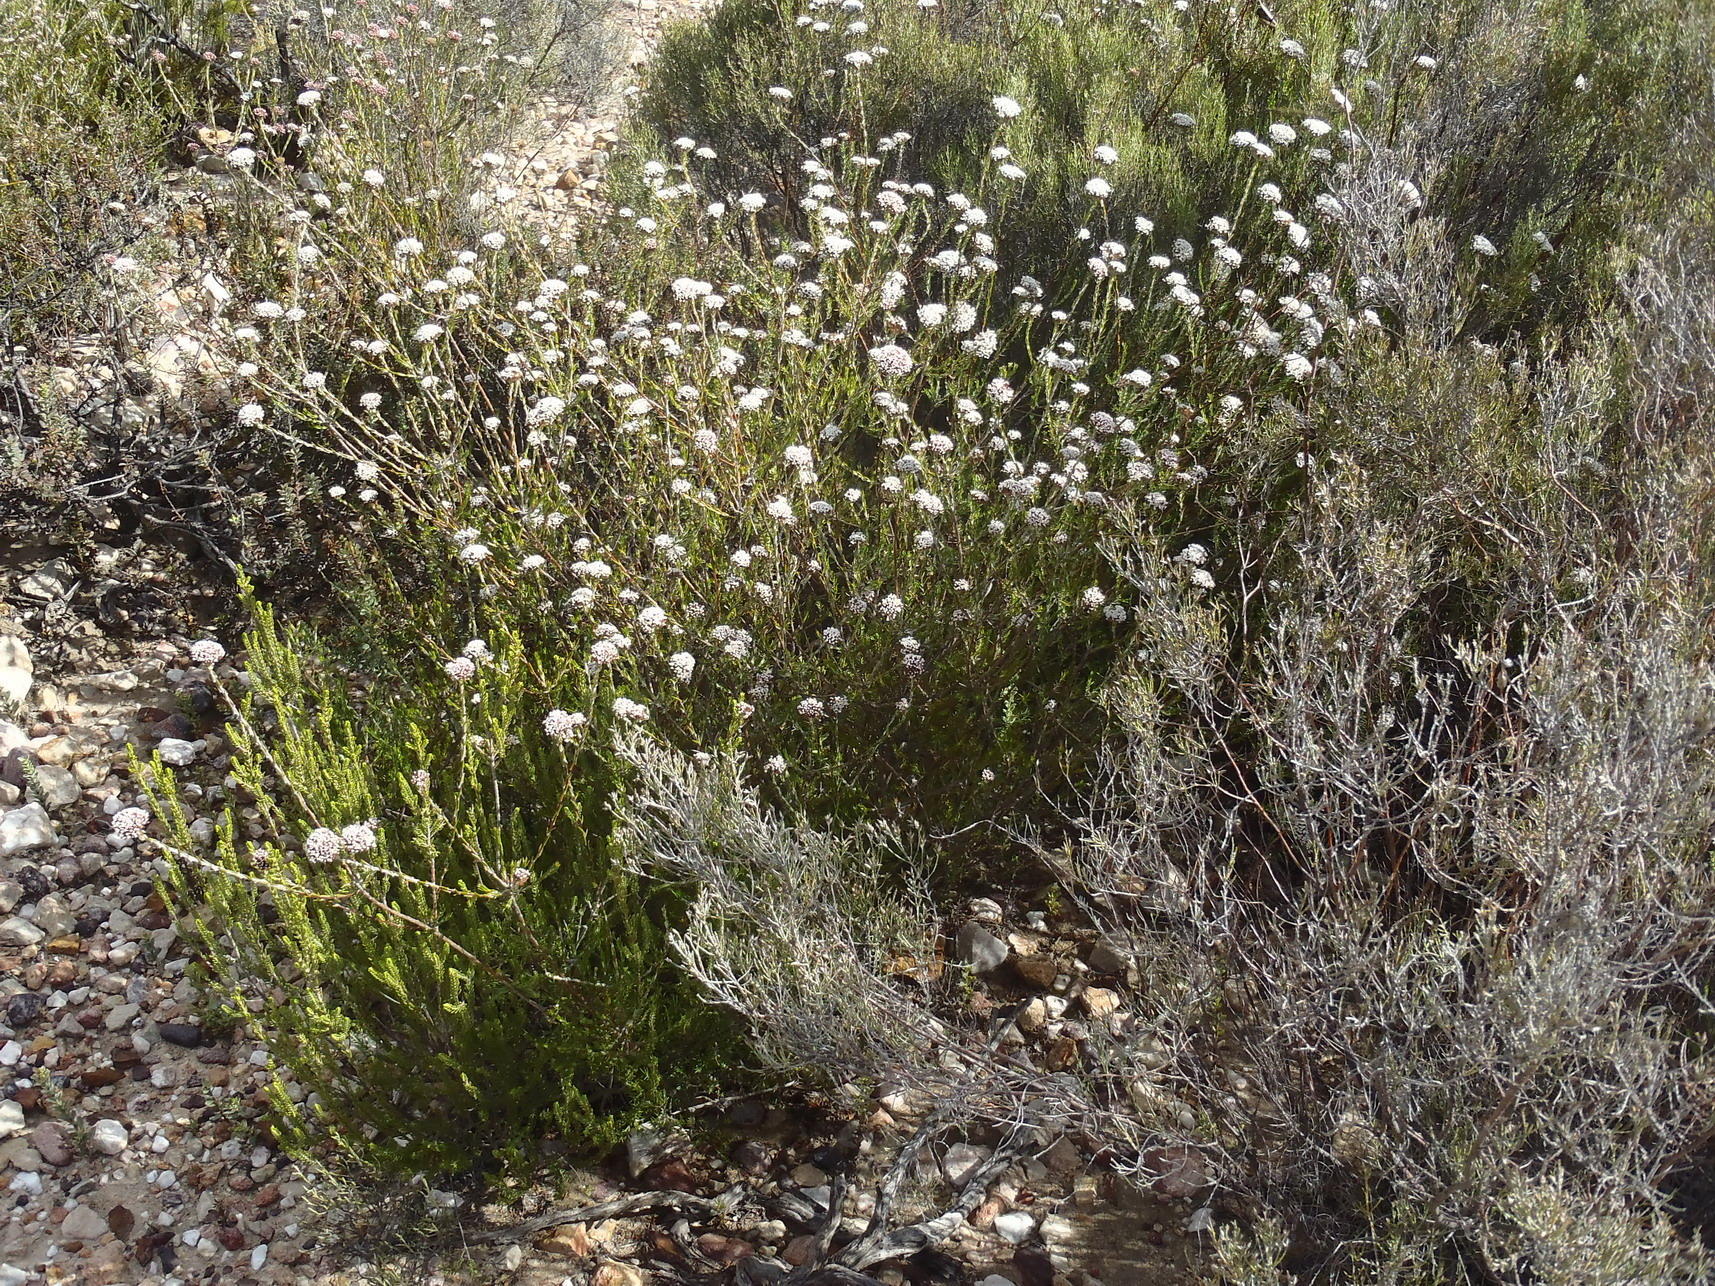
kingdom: Plantae
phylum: Tracheophyta
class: Magnoliopsida
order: Asterales
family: Asteraceae
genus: Metalasia
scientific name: Metalasia pungens
